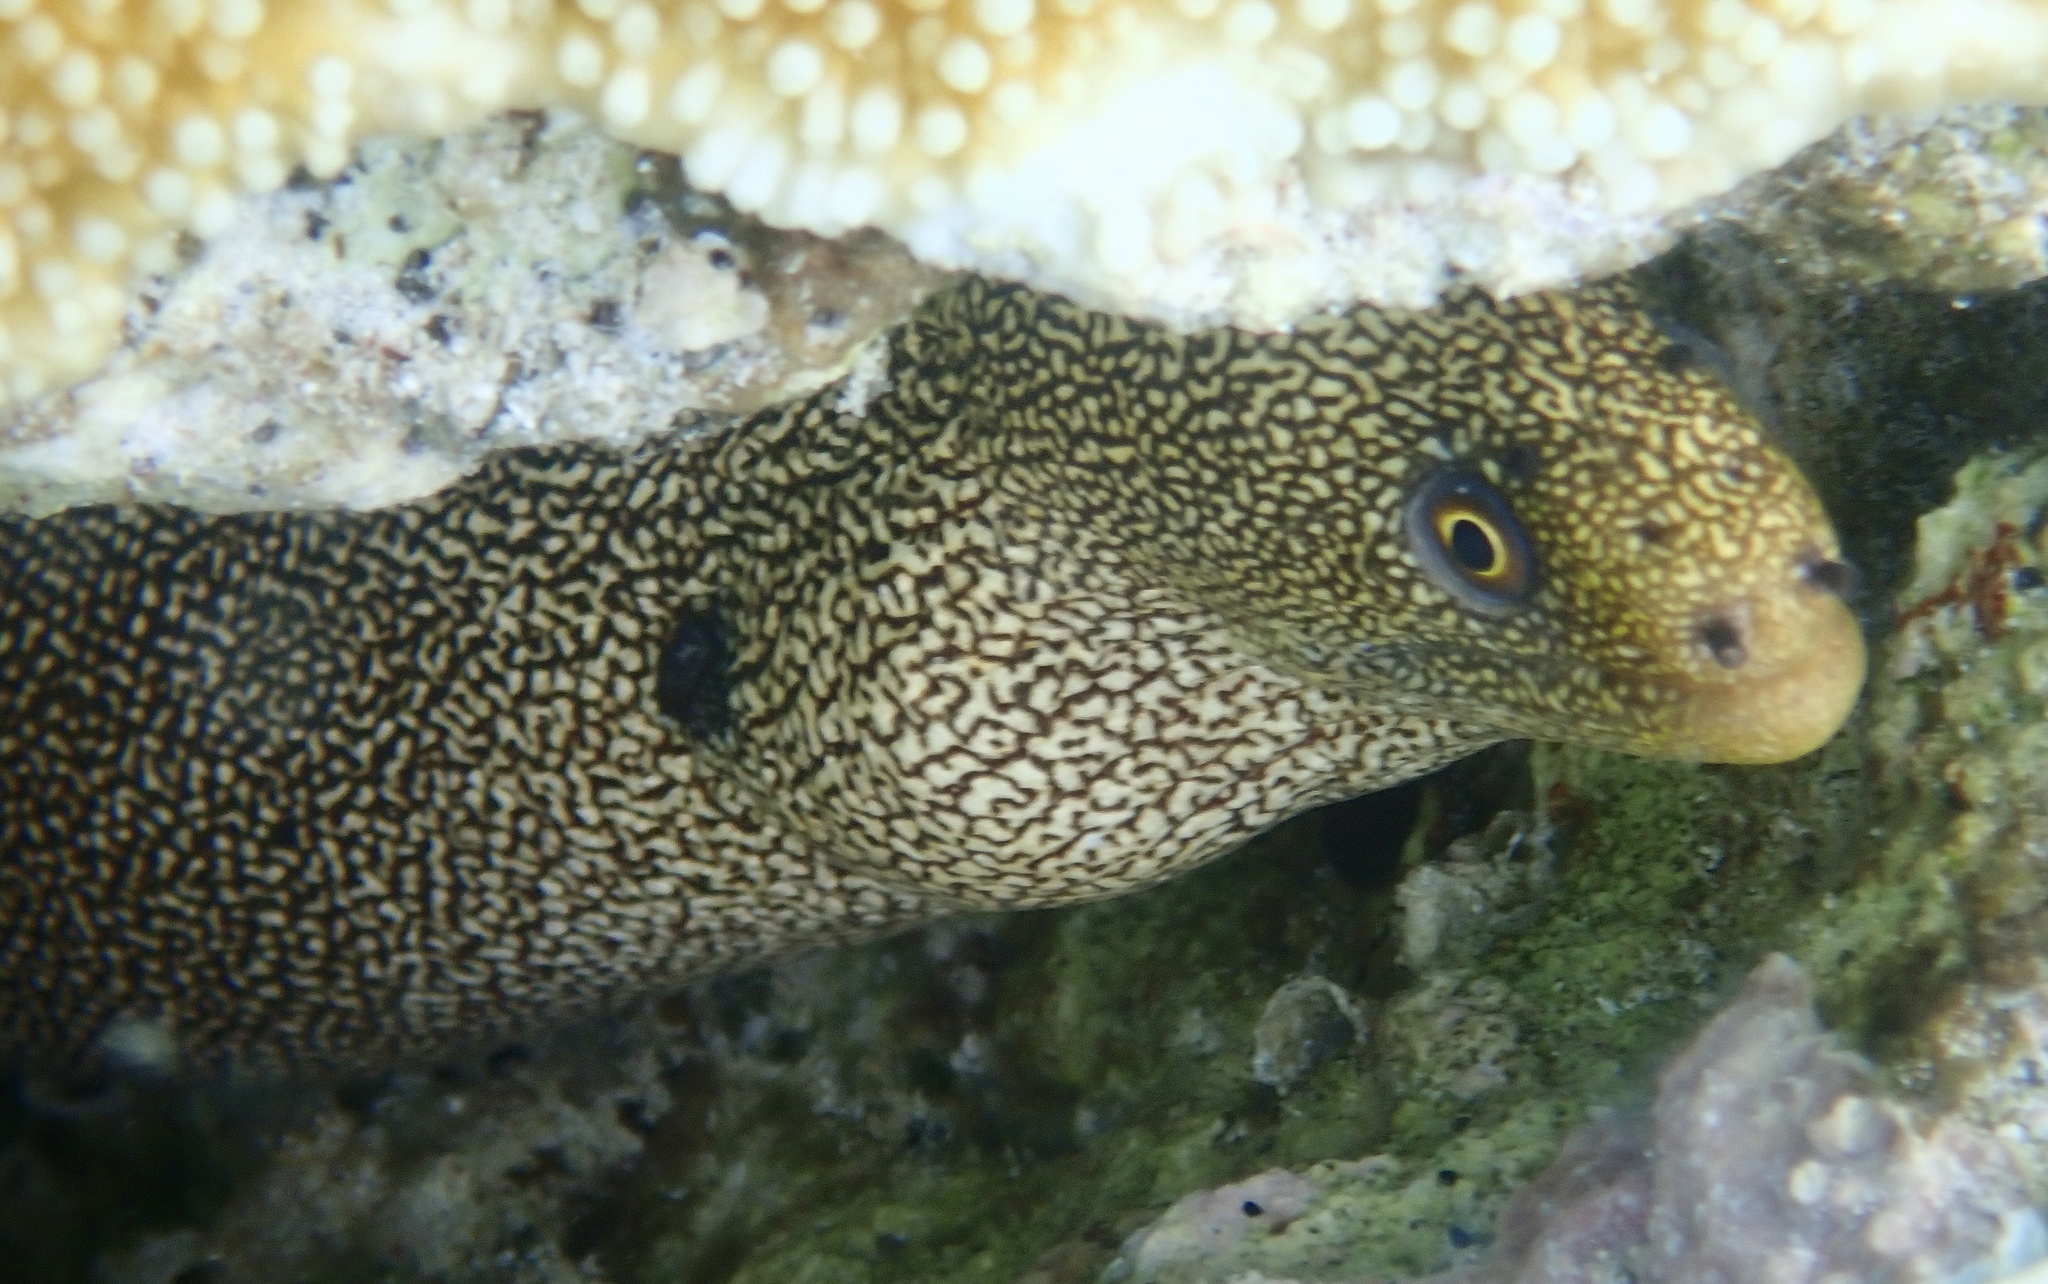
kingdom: Animalia
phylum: Chordata
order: Anguilliformes
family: Muraenidae
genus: Gymnothorax
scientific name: Gymnothorax miliaris
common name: Goldentail moray
